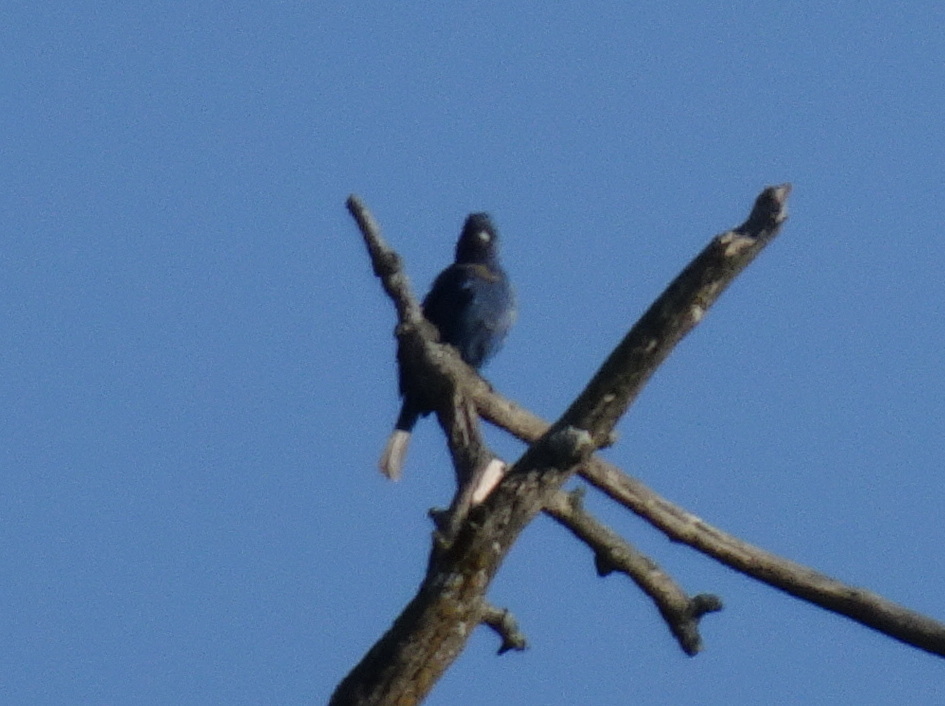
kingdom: Animalia
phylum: Chordata
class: Aves
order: Passeriformes
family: Cardinalidae
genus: Passerina
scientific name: Passerina cyanea
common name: Indigo bunting
